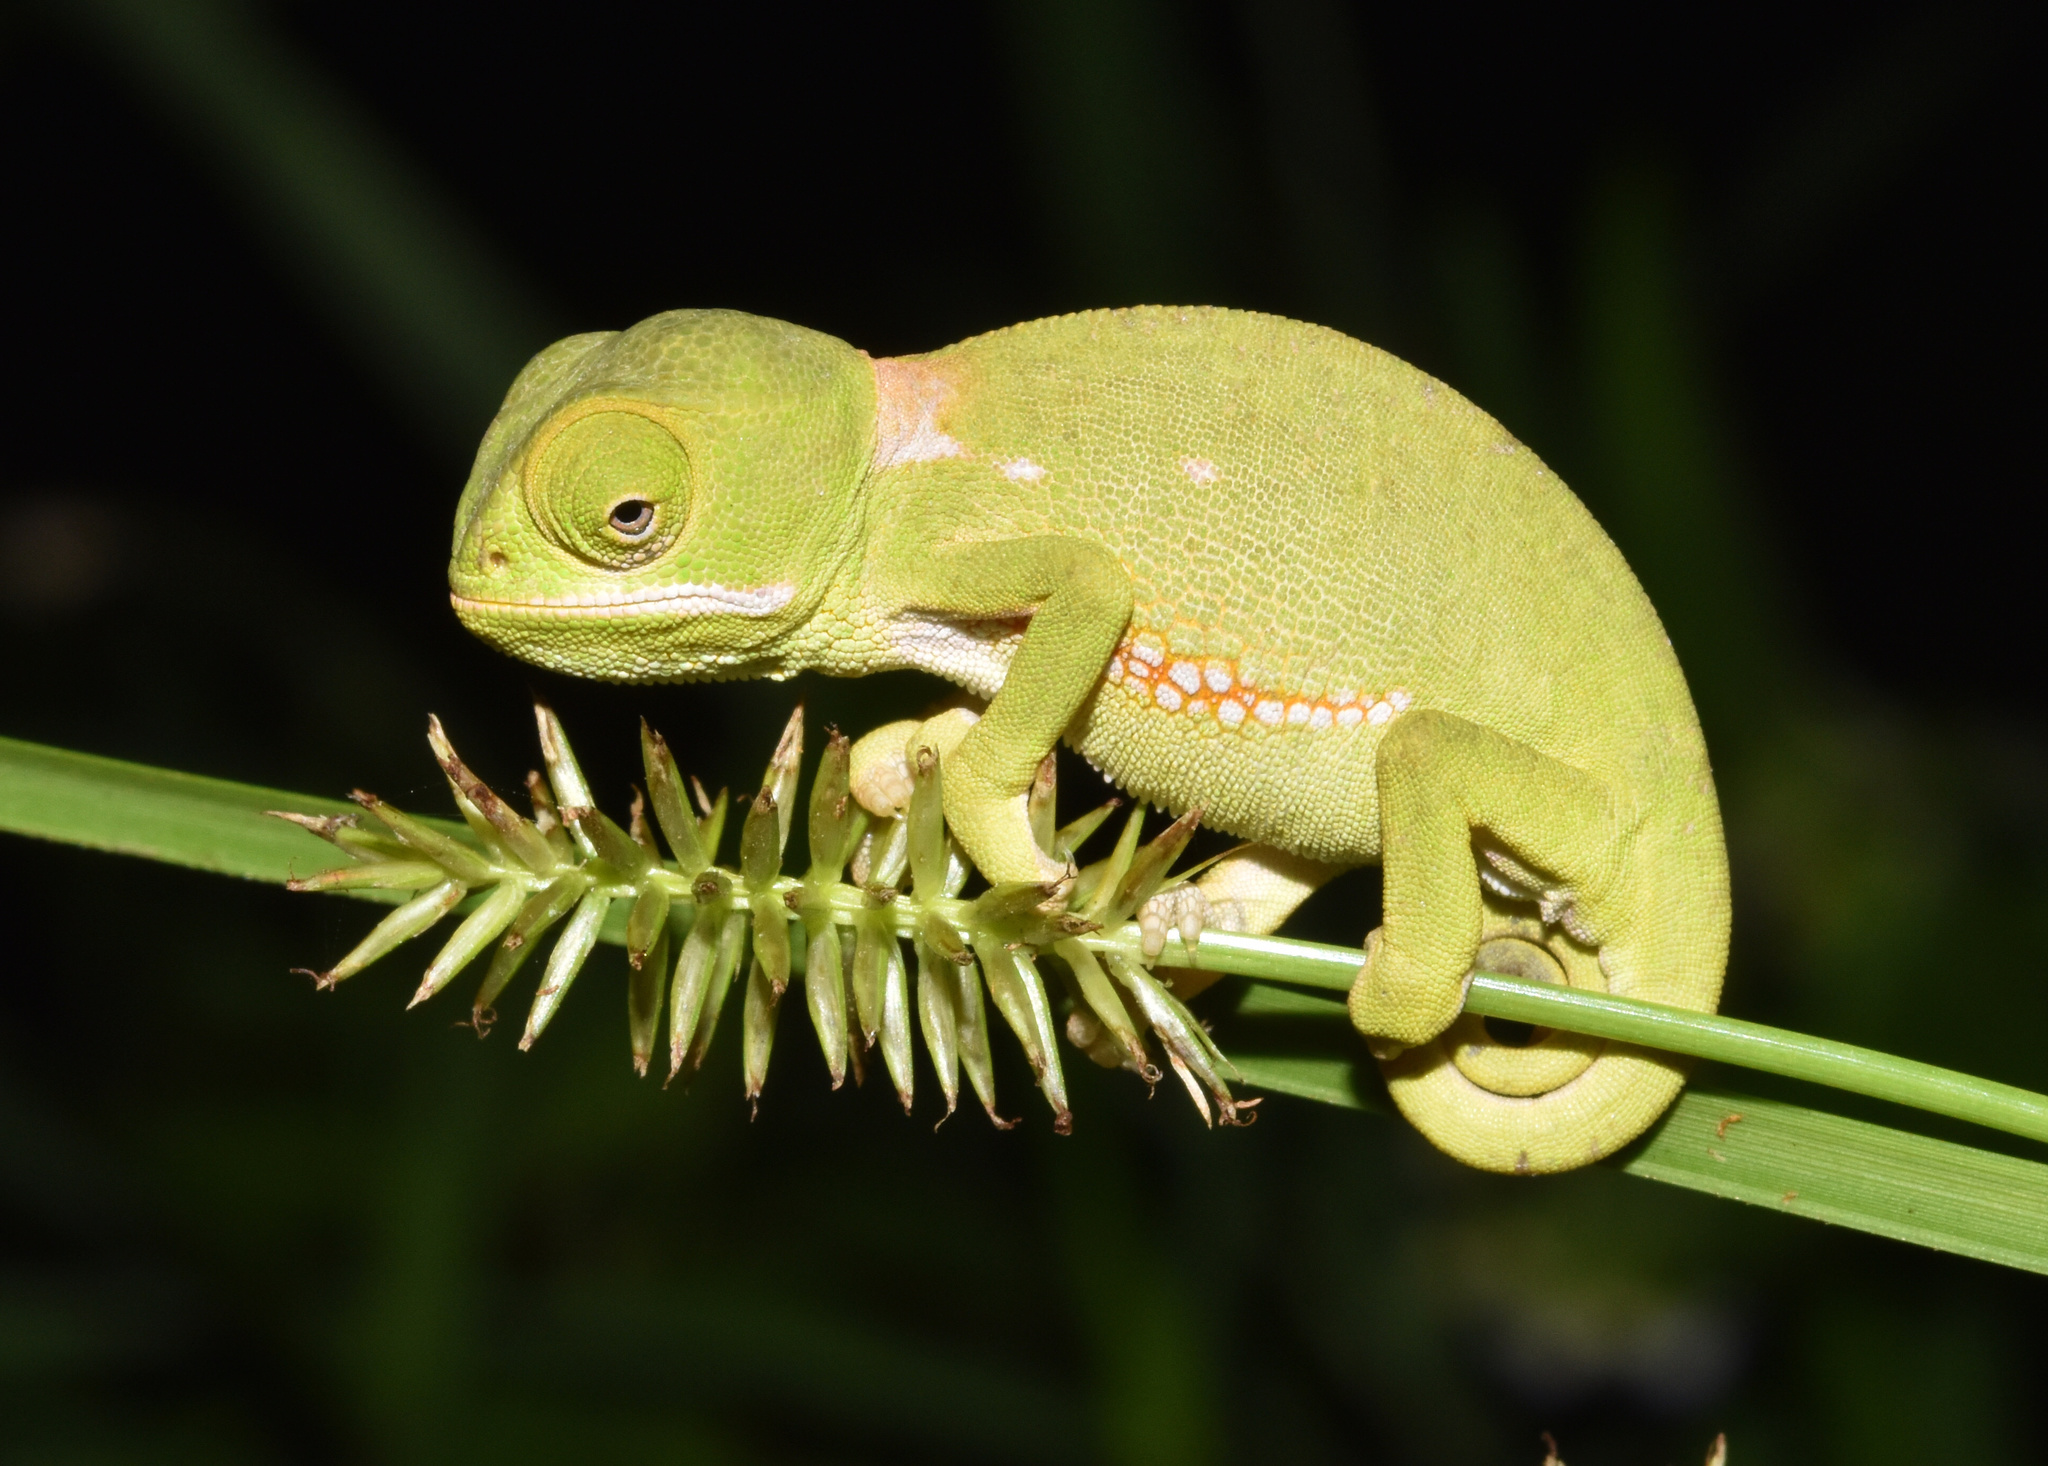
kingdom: Animalia
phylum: Chordata
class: Squamata
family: Chamaeleonidae
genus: Chamaeleo
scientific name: Chamaeleo dilepis
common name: Flapneck chameleon
